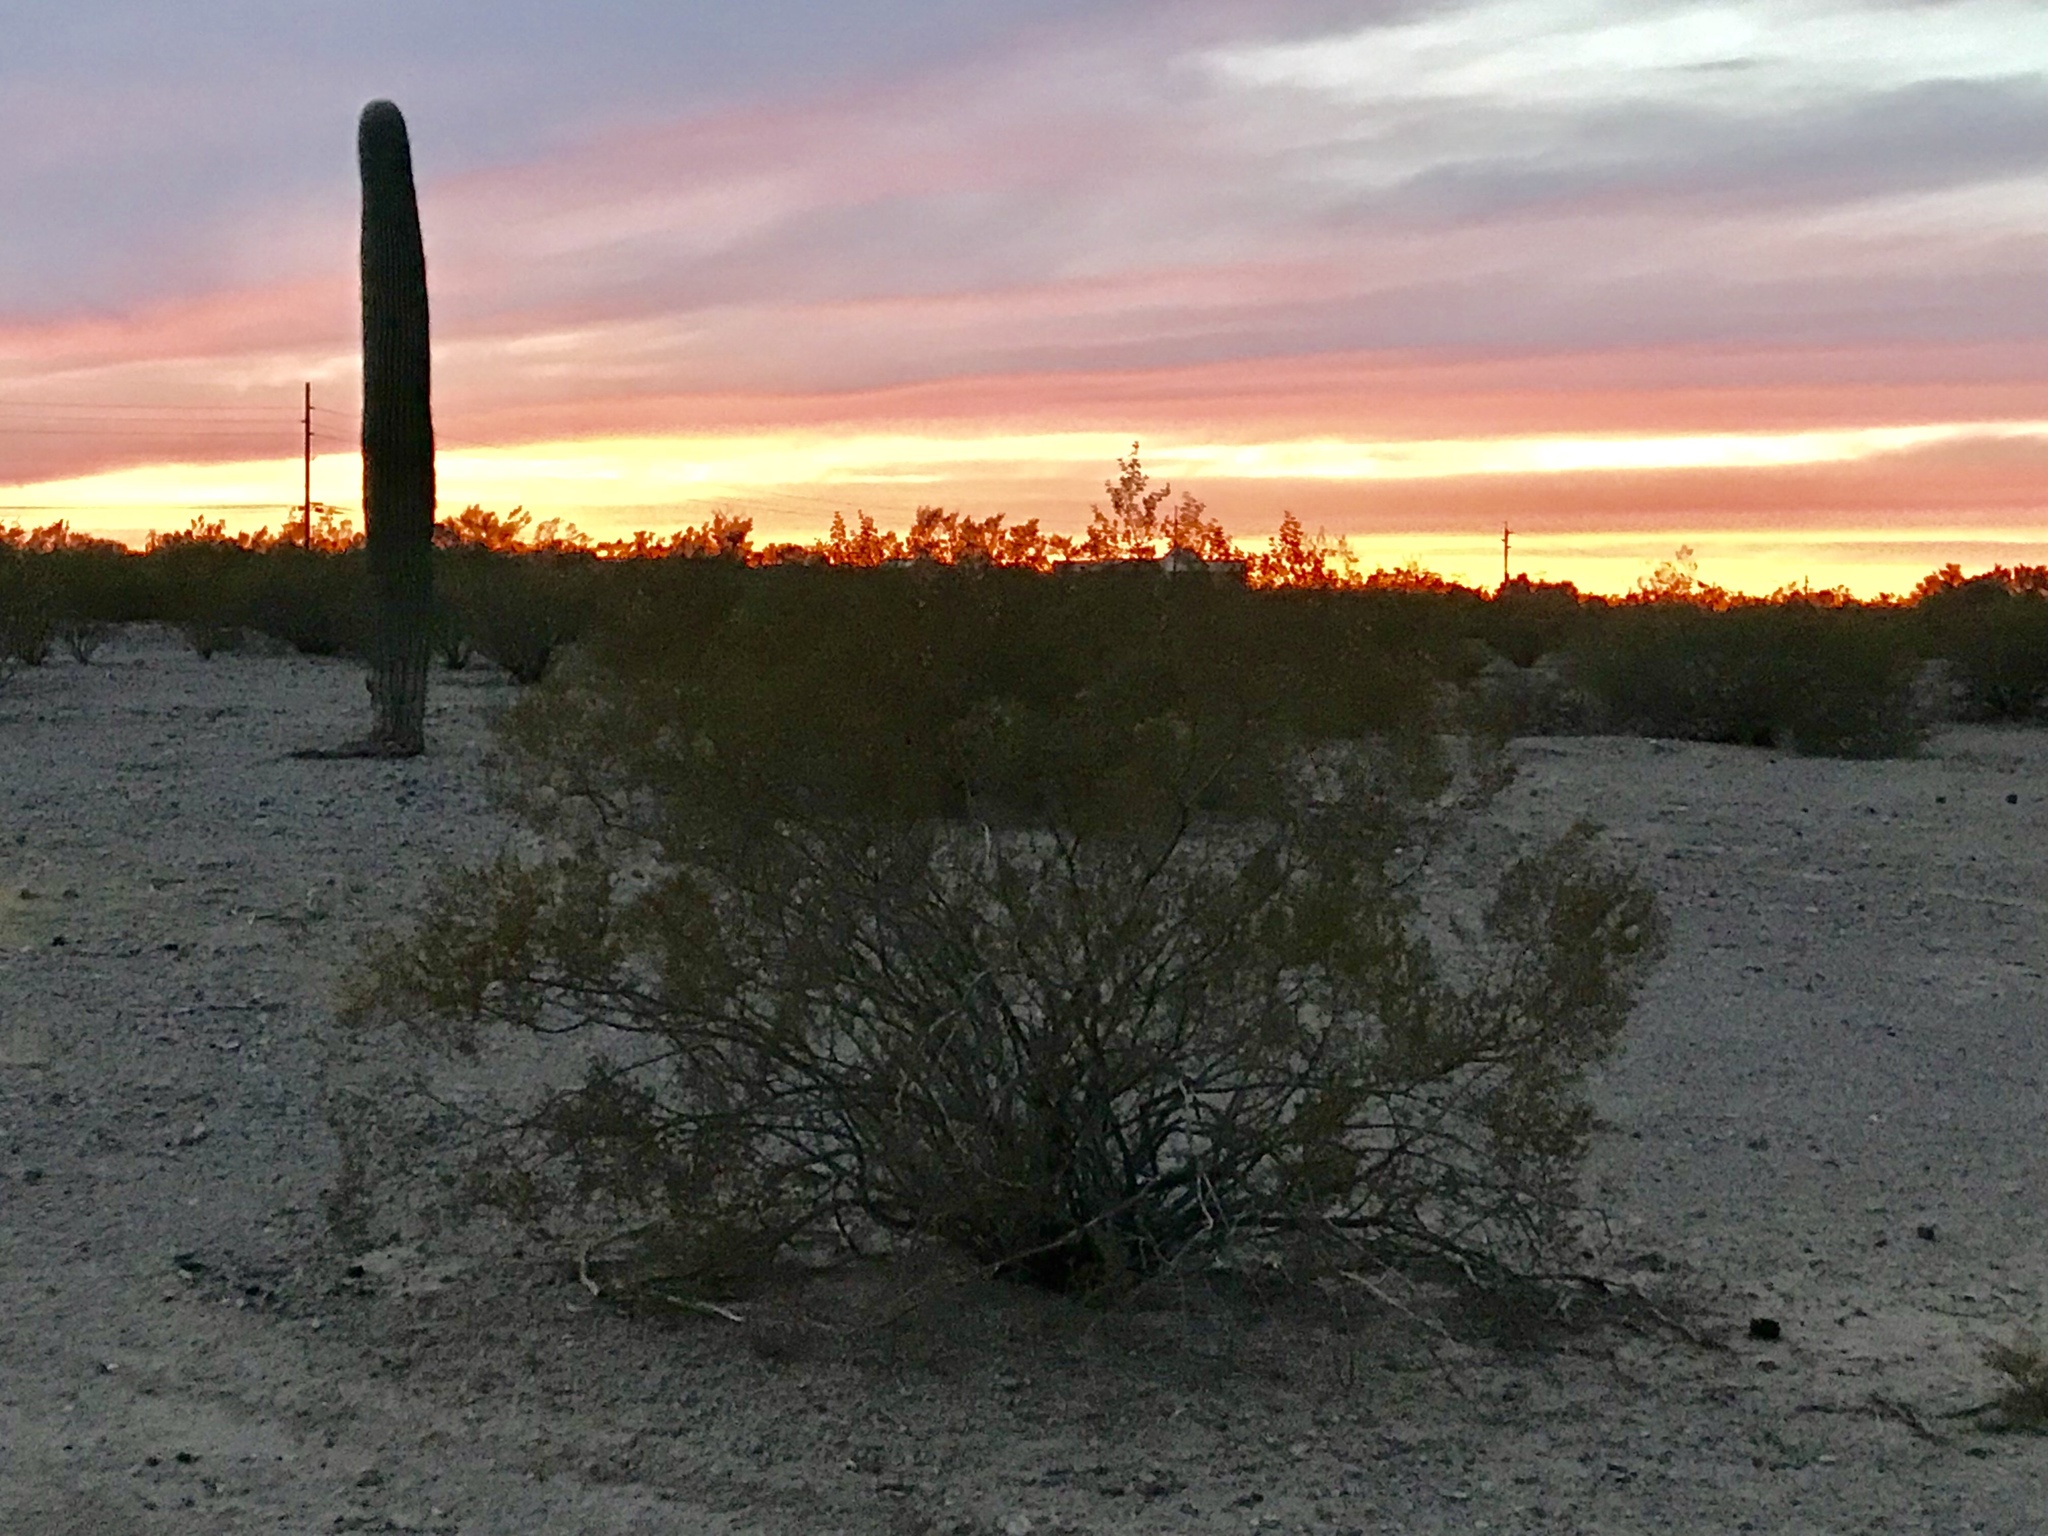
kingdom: Plantae
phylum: Tracheophyta
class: Magnoliopsida
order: Zygophyllales
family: Zygophyllaceae
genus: Larrea
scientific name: Larrea tridentata
